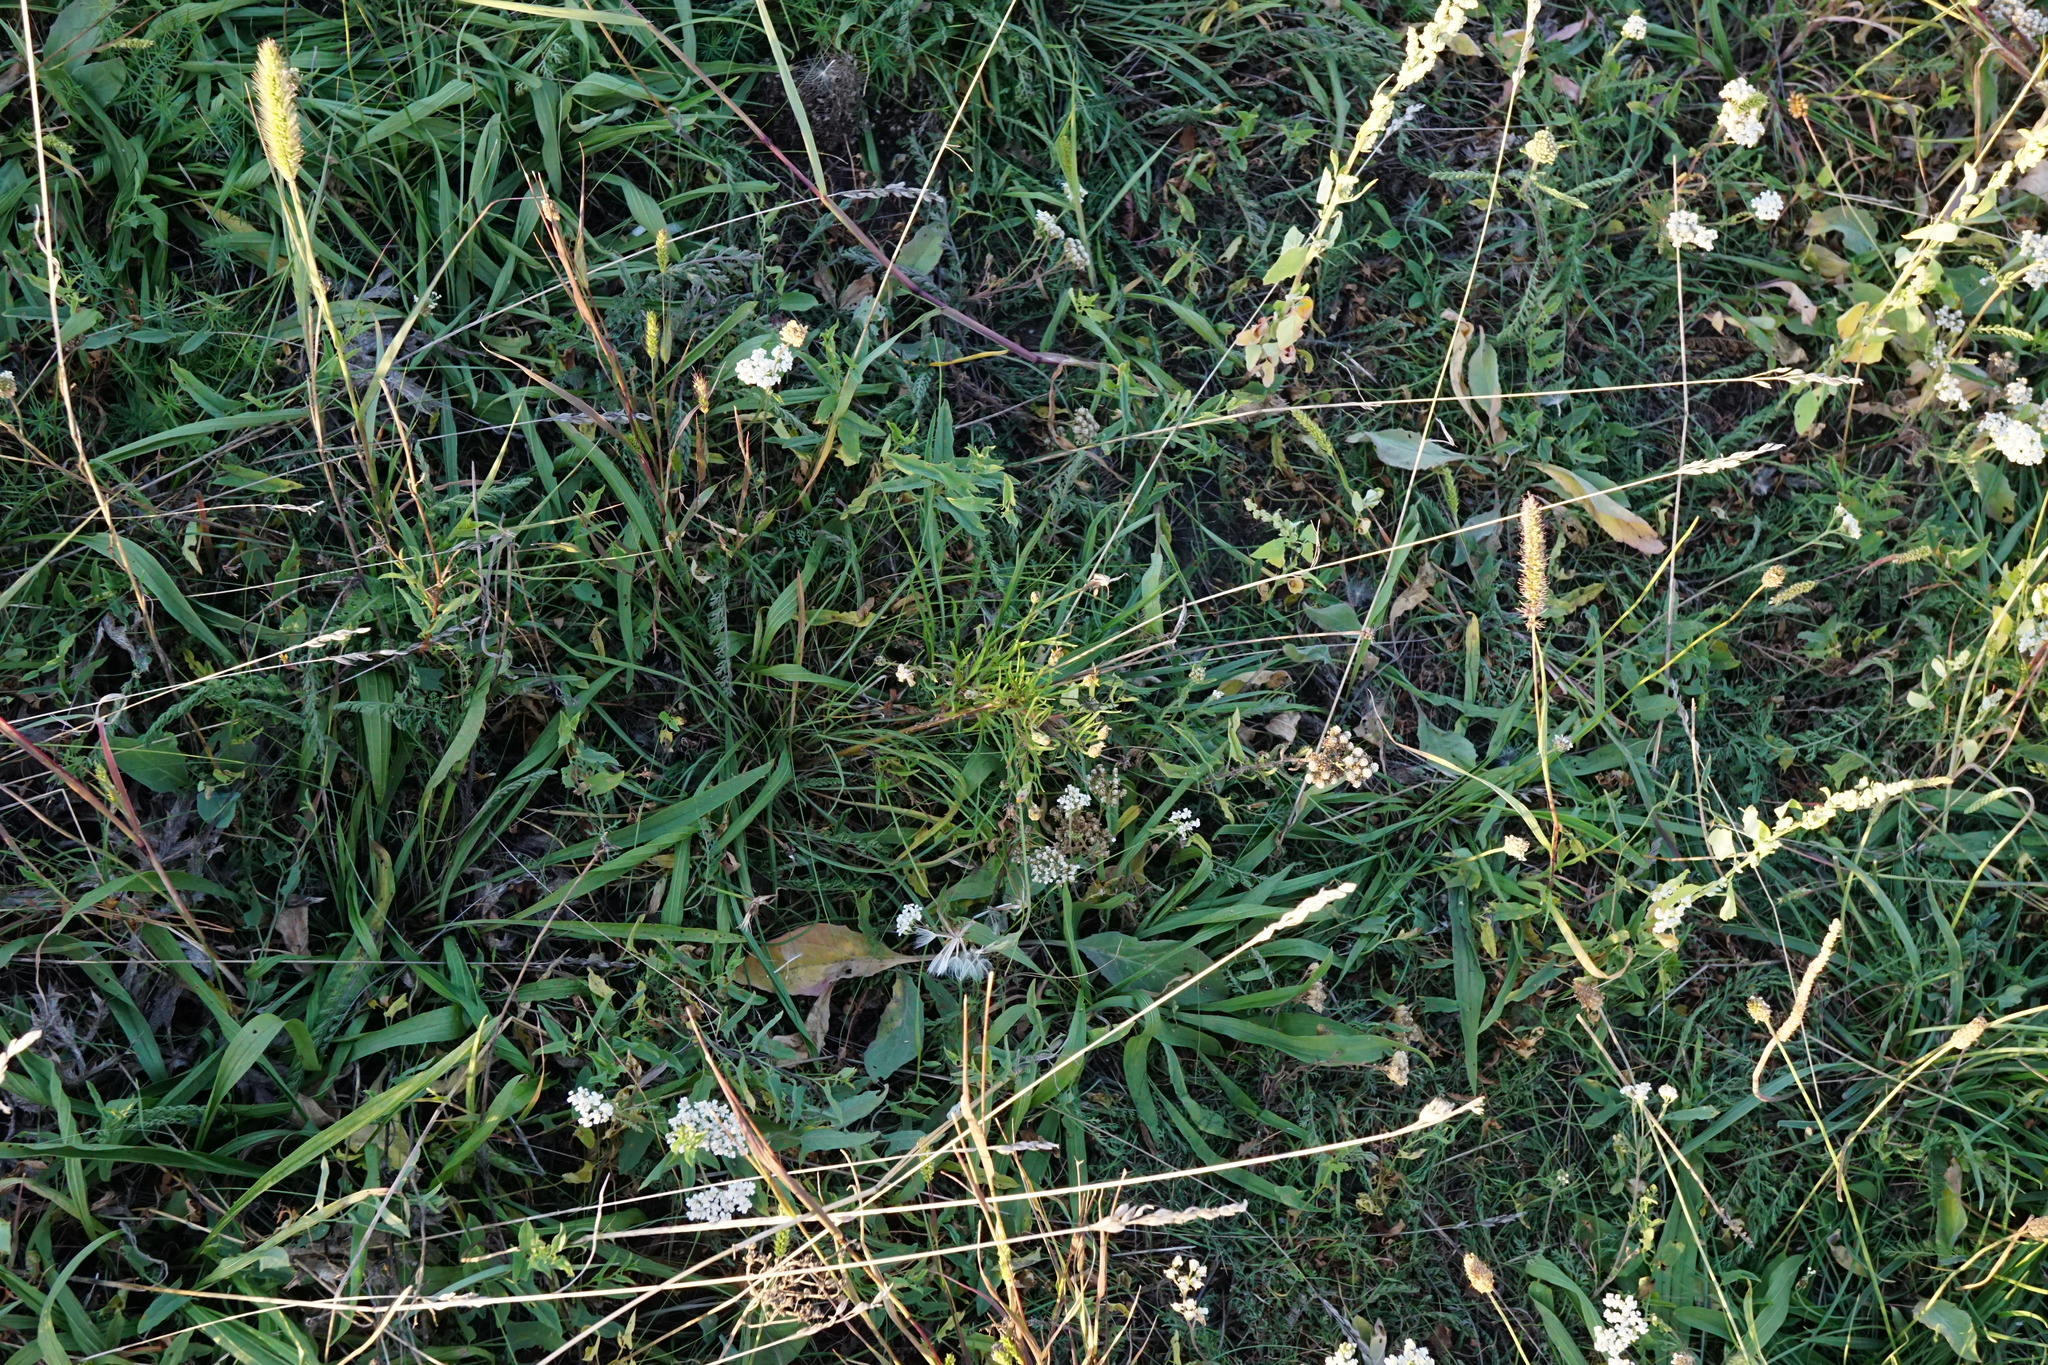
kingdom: Plantae
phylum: Tracheophyta
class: Magnoliopsida
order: Asterales
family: Asteraceae
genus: Scorzonera
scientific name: Scorzonera cana
